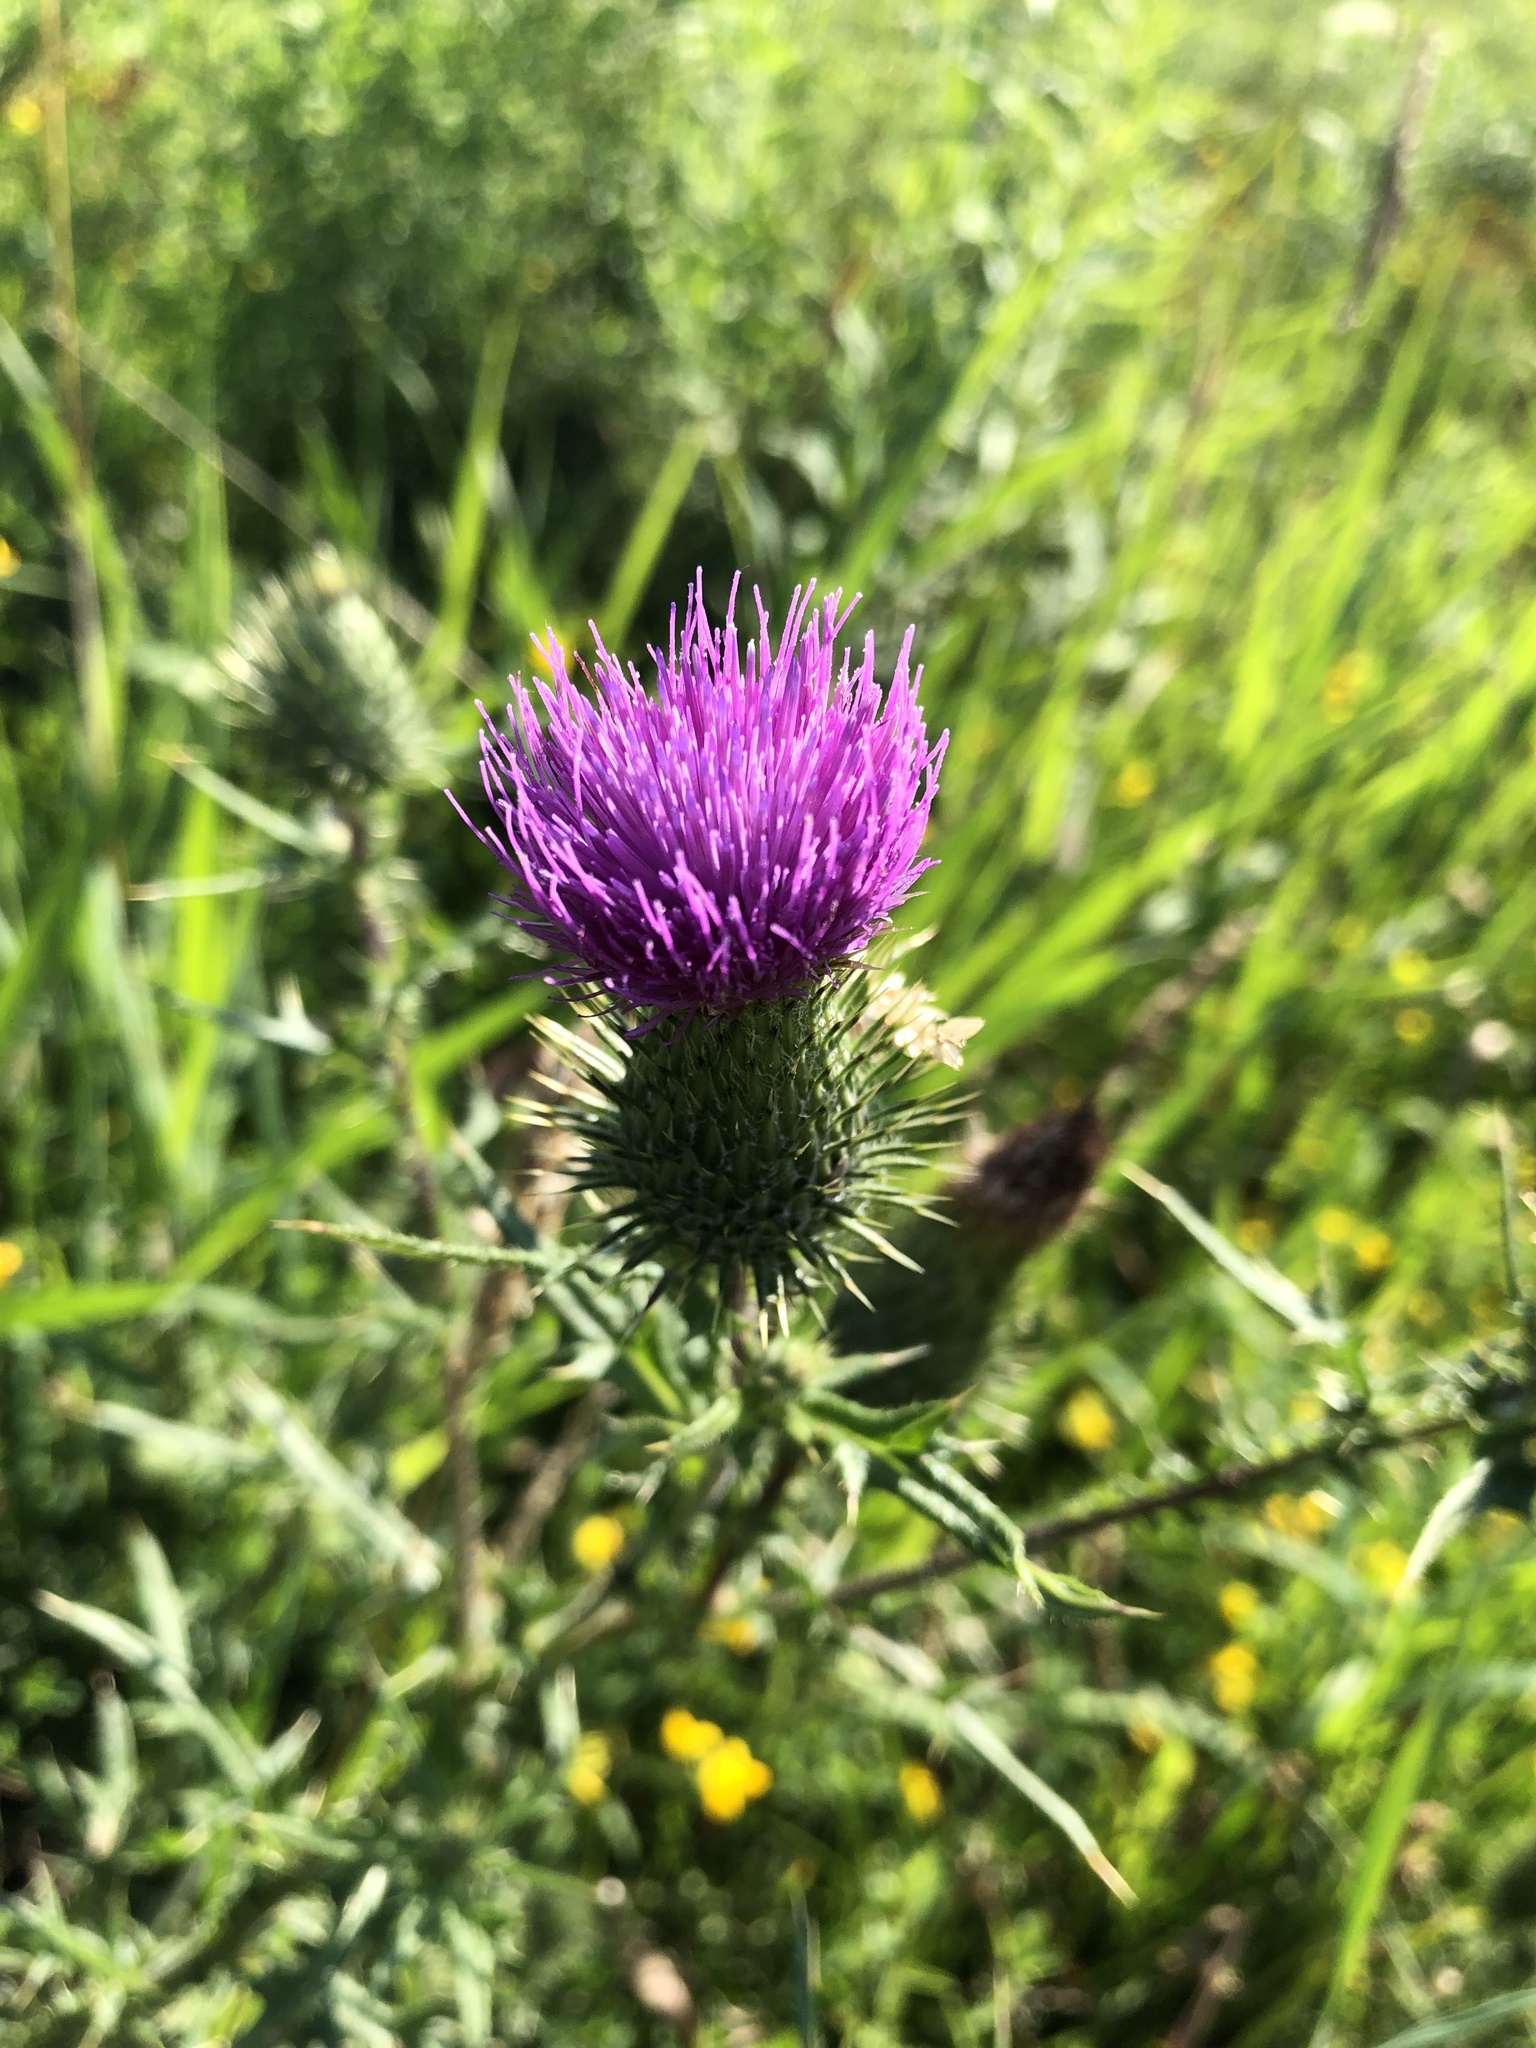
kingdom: Plantae
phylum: Tracheophyta
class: Magnoliopsida
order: Asterales
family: Asteraceae
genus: Cirsium
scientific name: Cirsium vulgare
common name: Bull thistle
